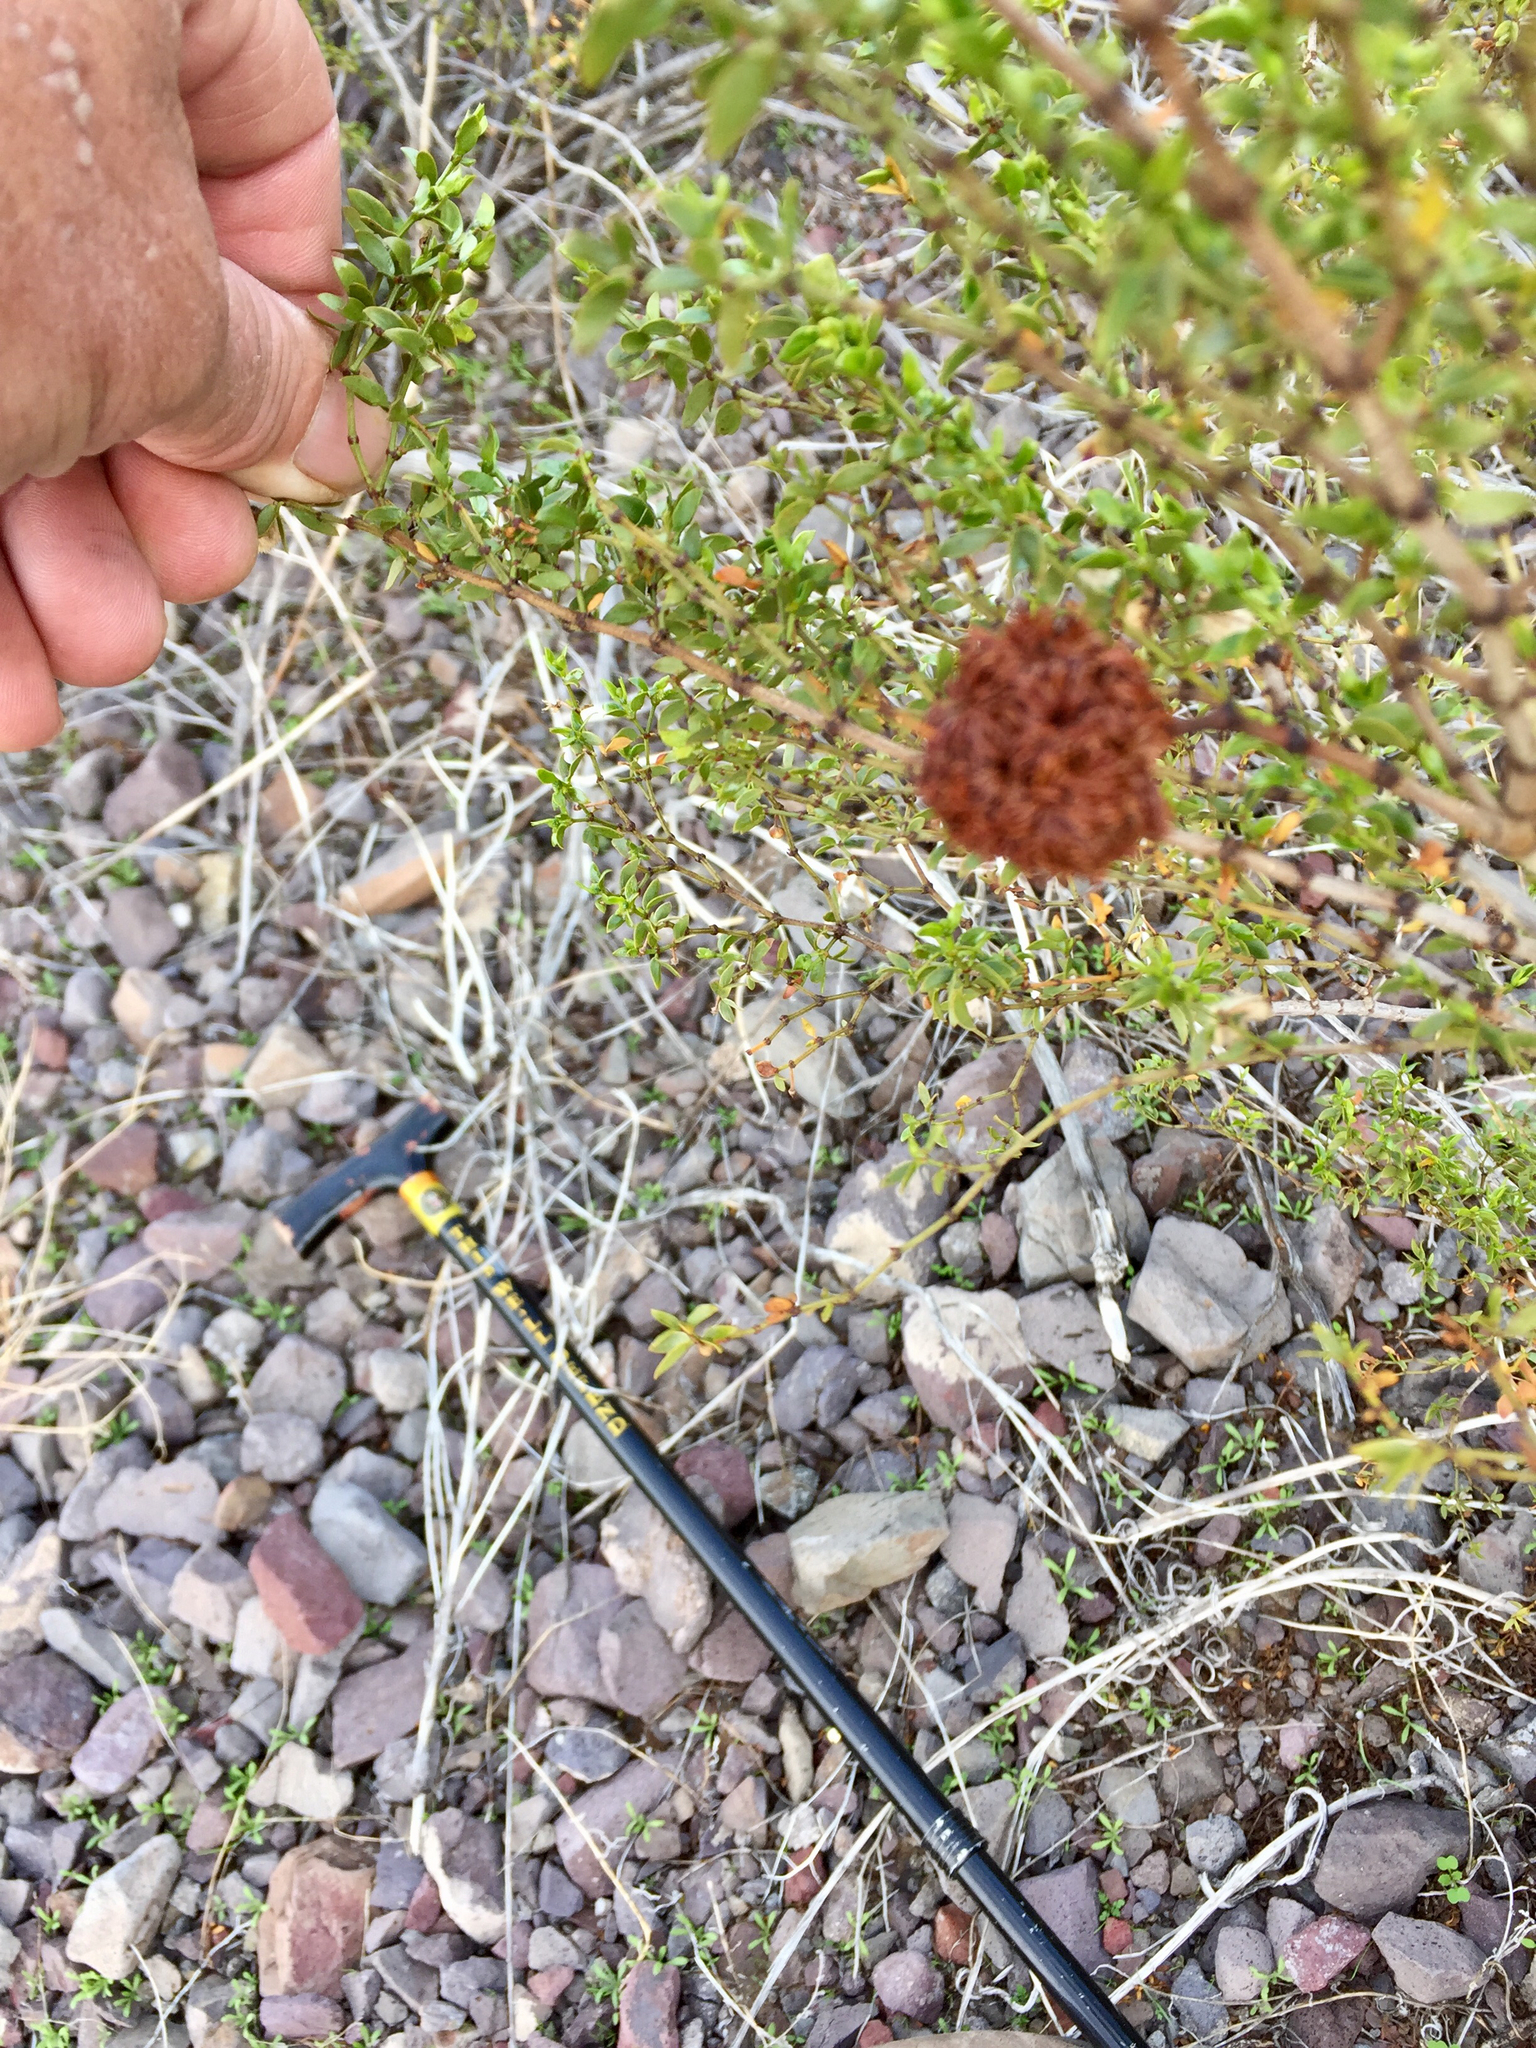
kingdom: Animalia
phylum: Arthropoda
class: Insecta
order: Diptera
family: Cecidomyiidae
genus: Asphondylia
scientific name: Asphondylia auripila
